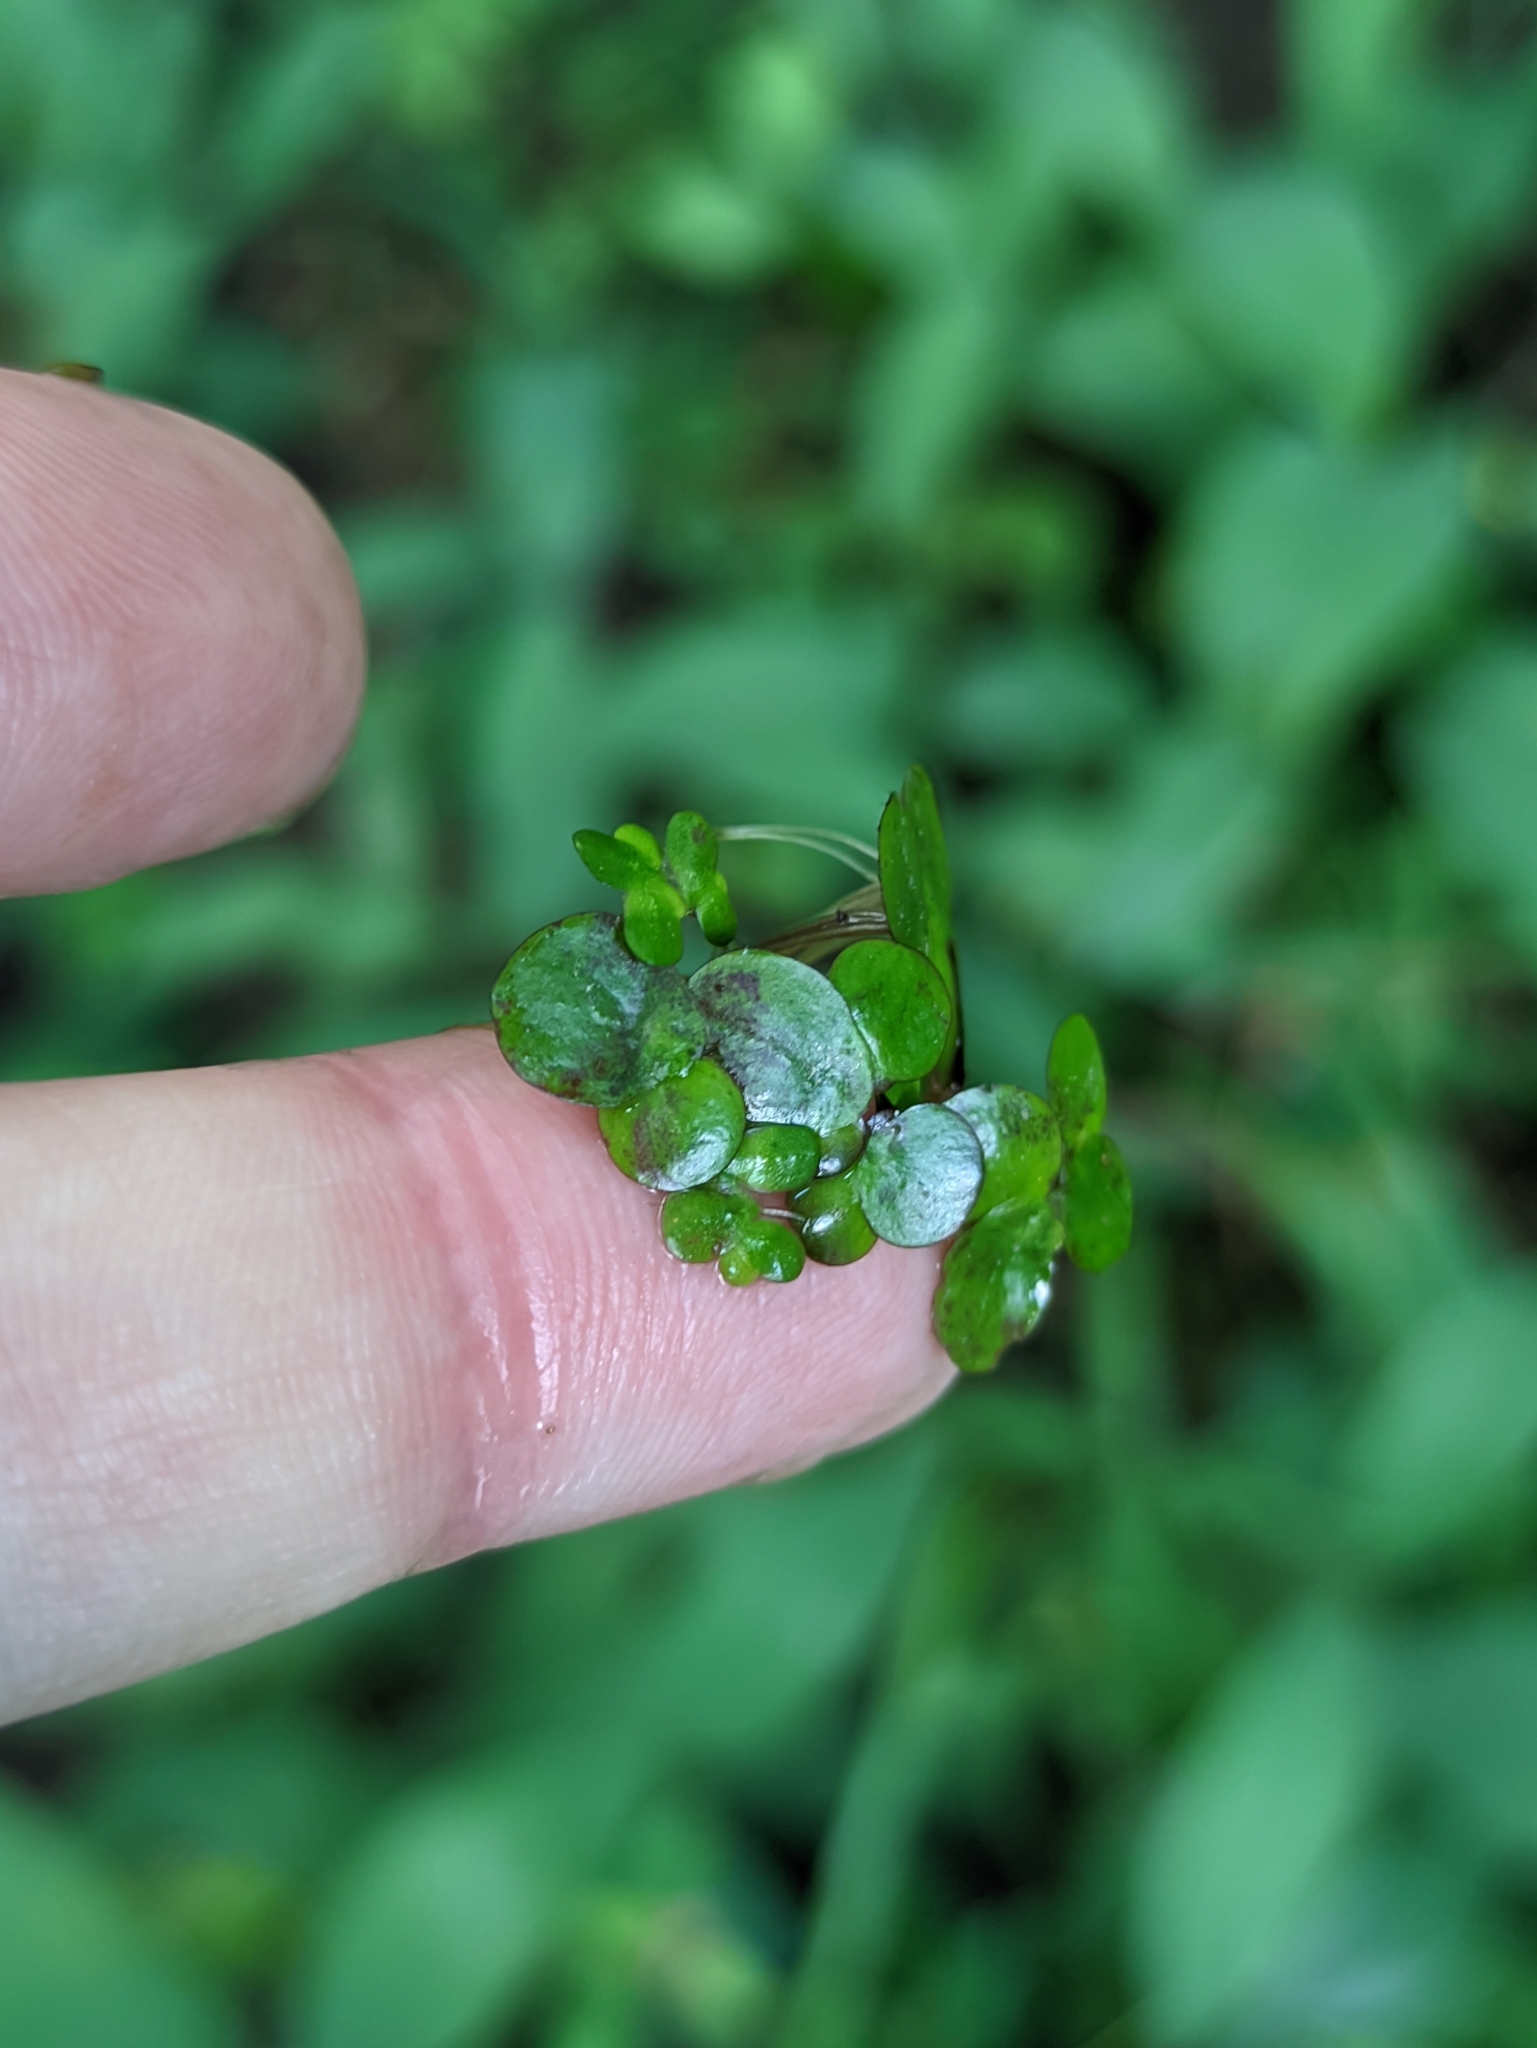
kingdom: Plantae
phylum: Tracheophyta
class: Liliopsida
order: Alismatales
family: Araceae
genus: Spirodela
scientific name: Spirodela polyrhiza
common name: Great duckweed
